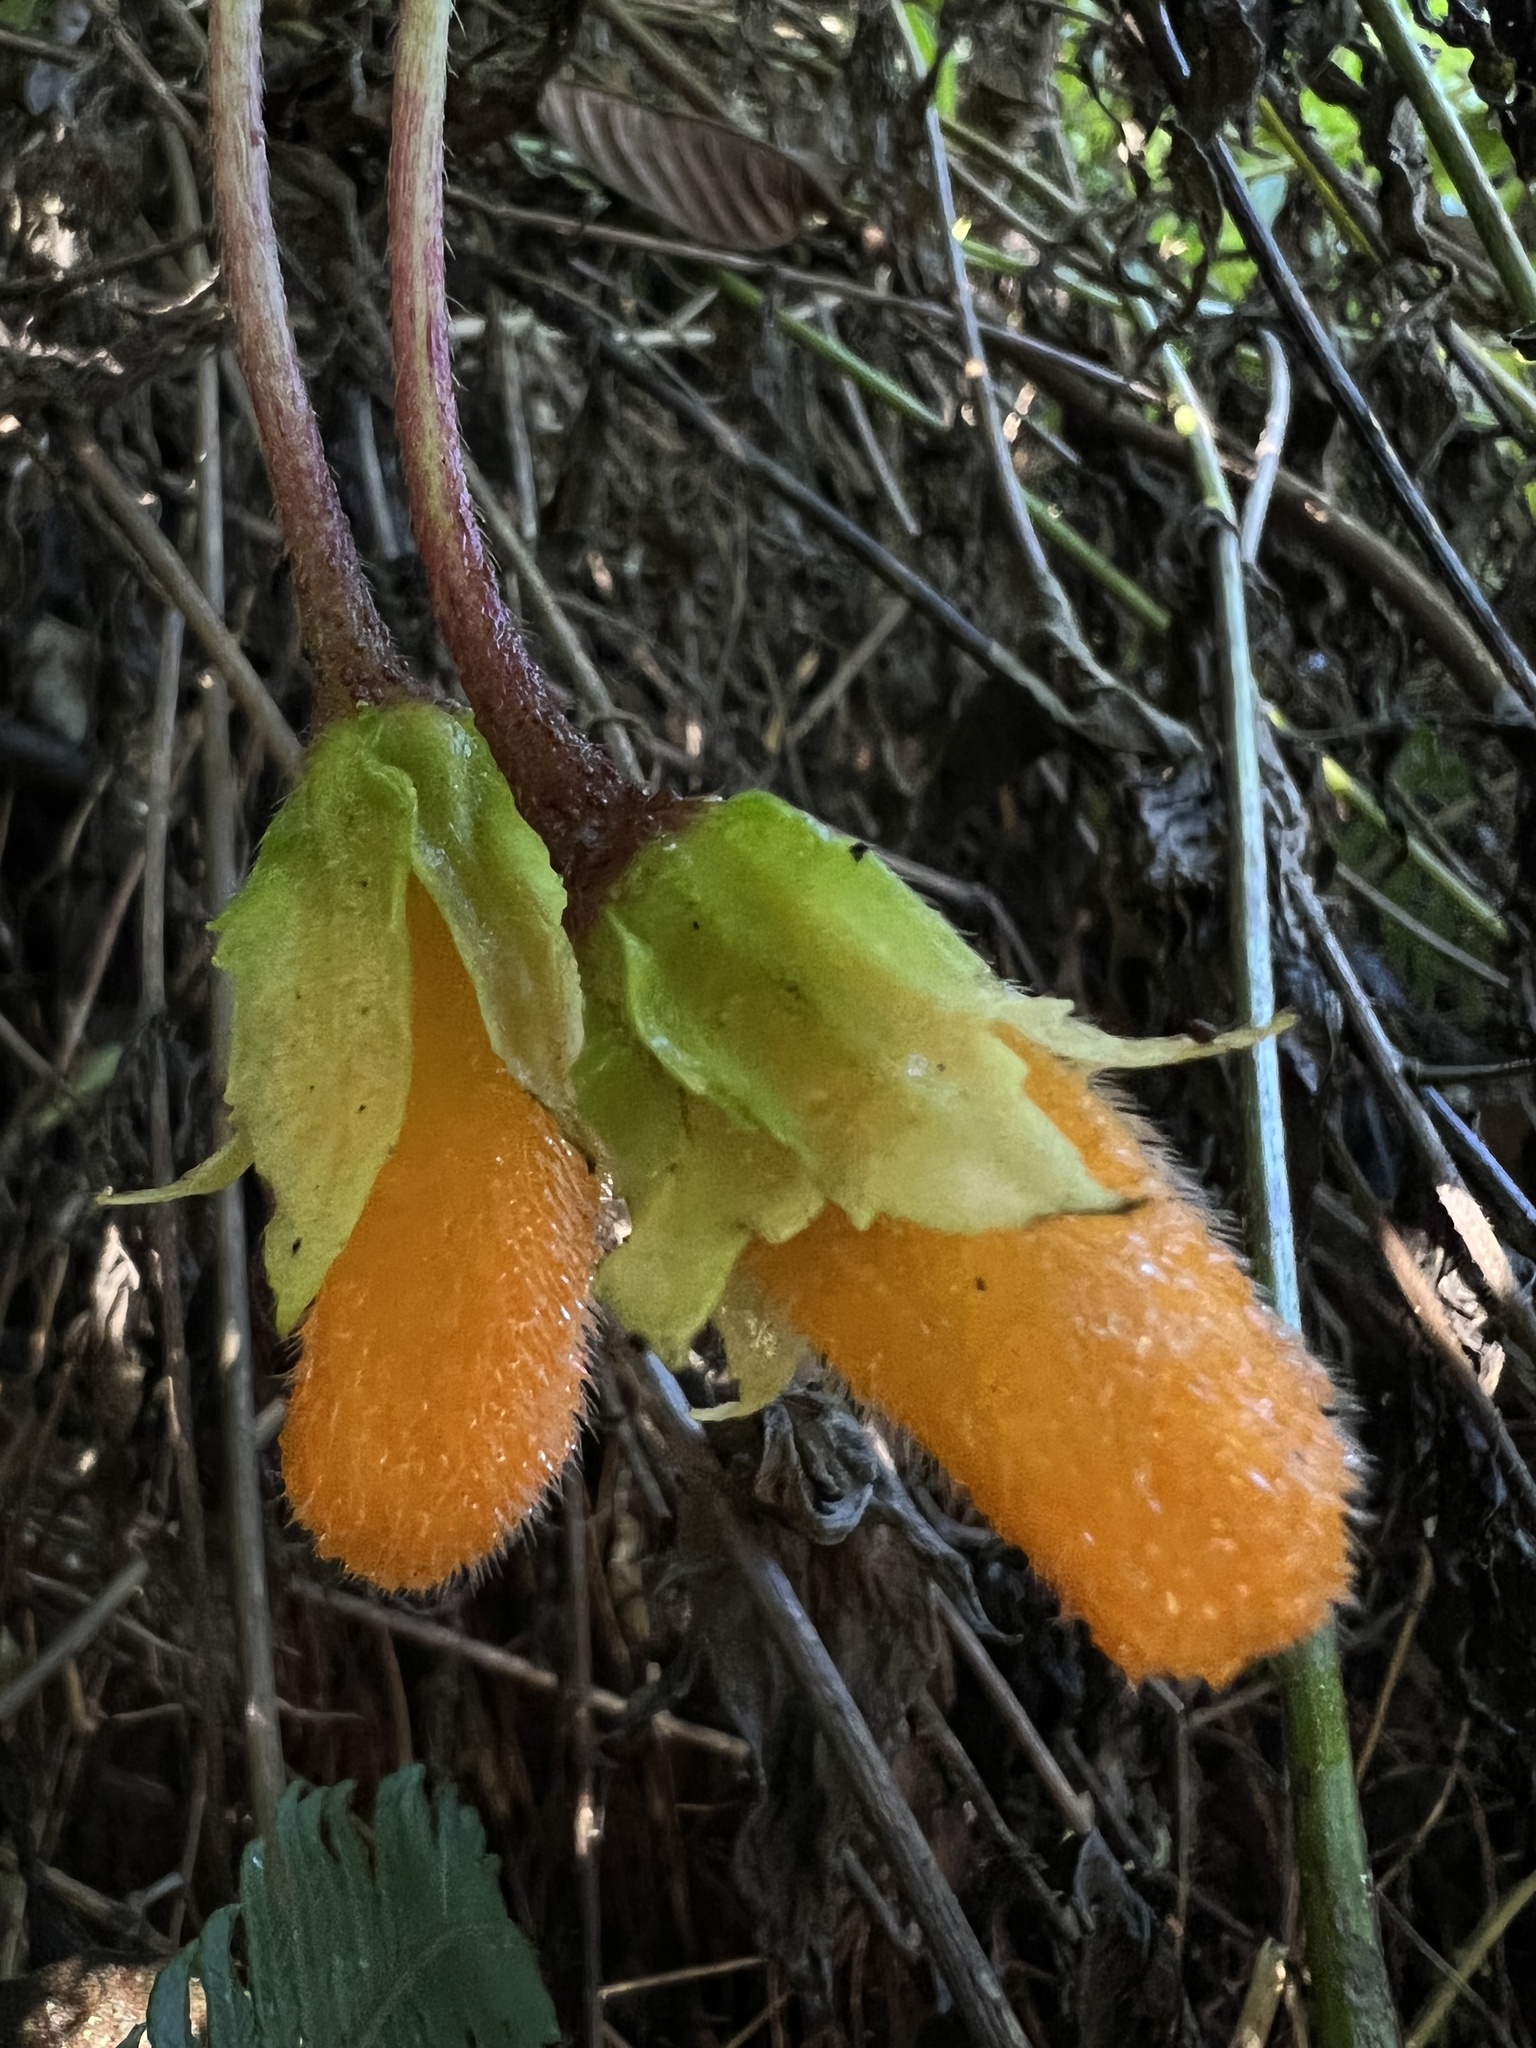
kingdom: Plantae
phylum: Tracheophyta
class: Magnoliopsida
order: Lamiales
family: Gesneriaceae
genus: Columnea
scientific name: Columnea strigosa
